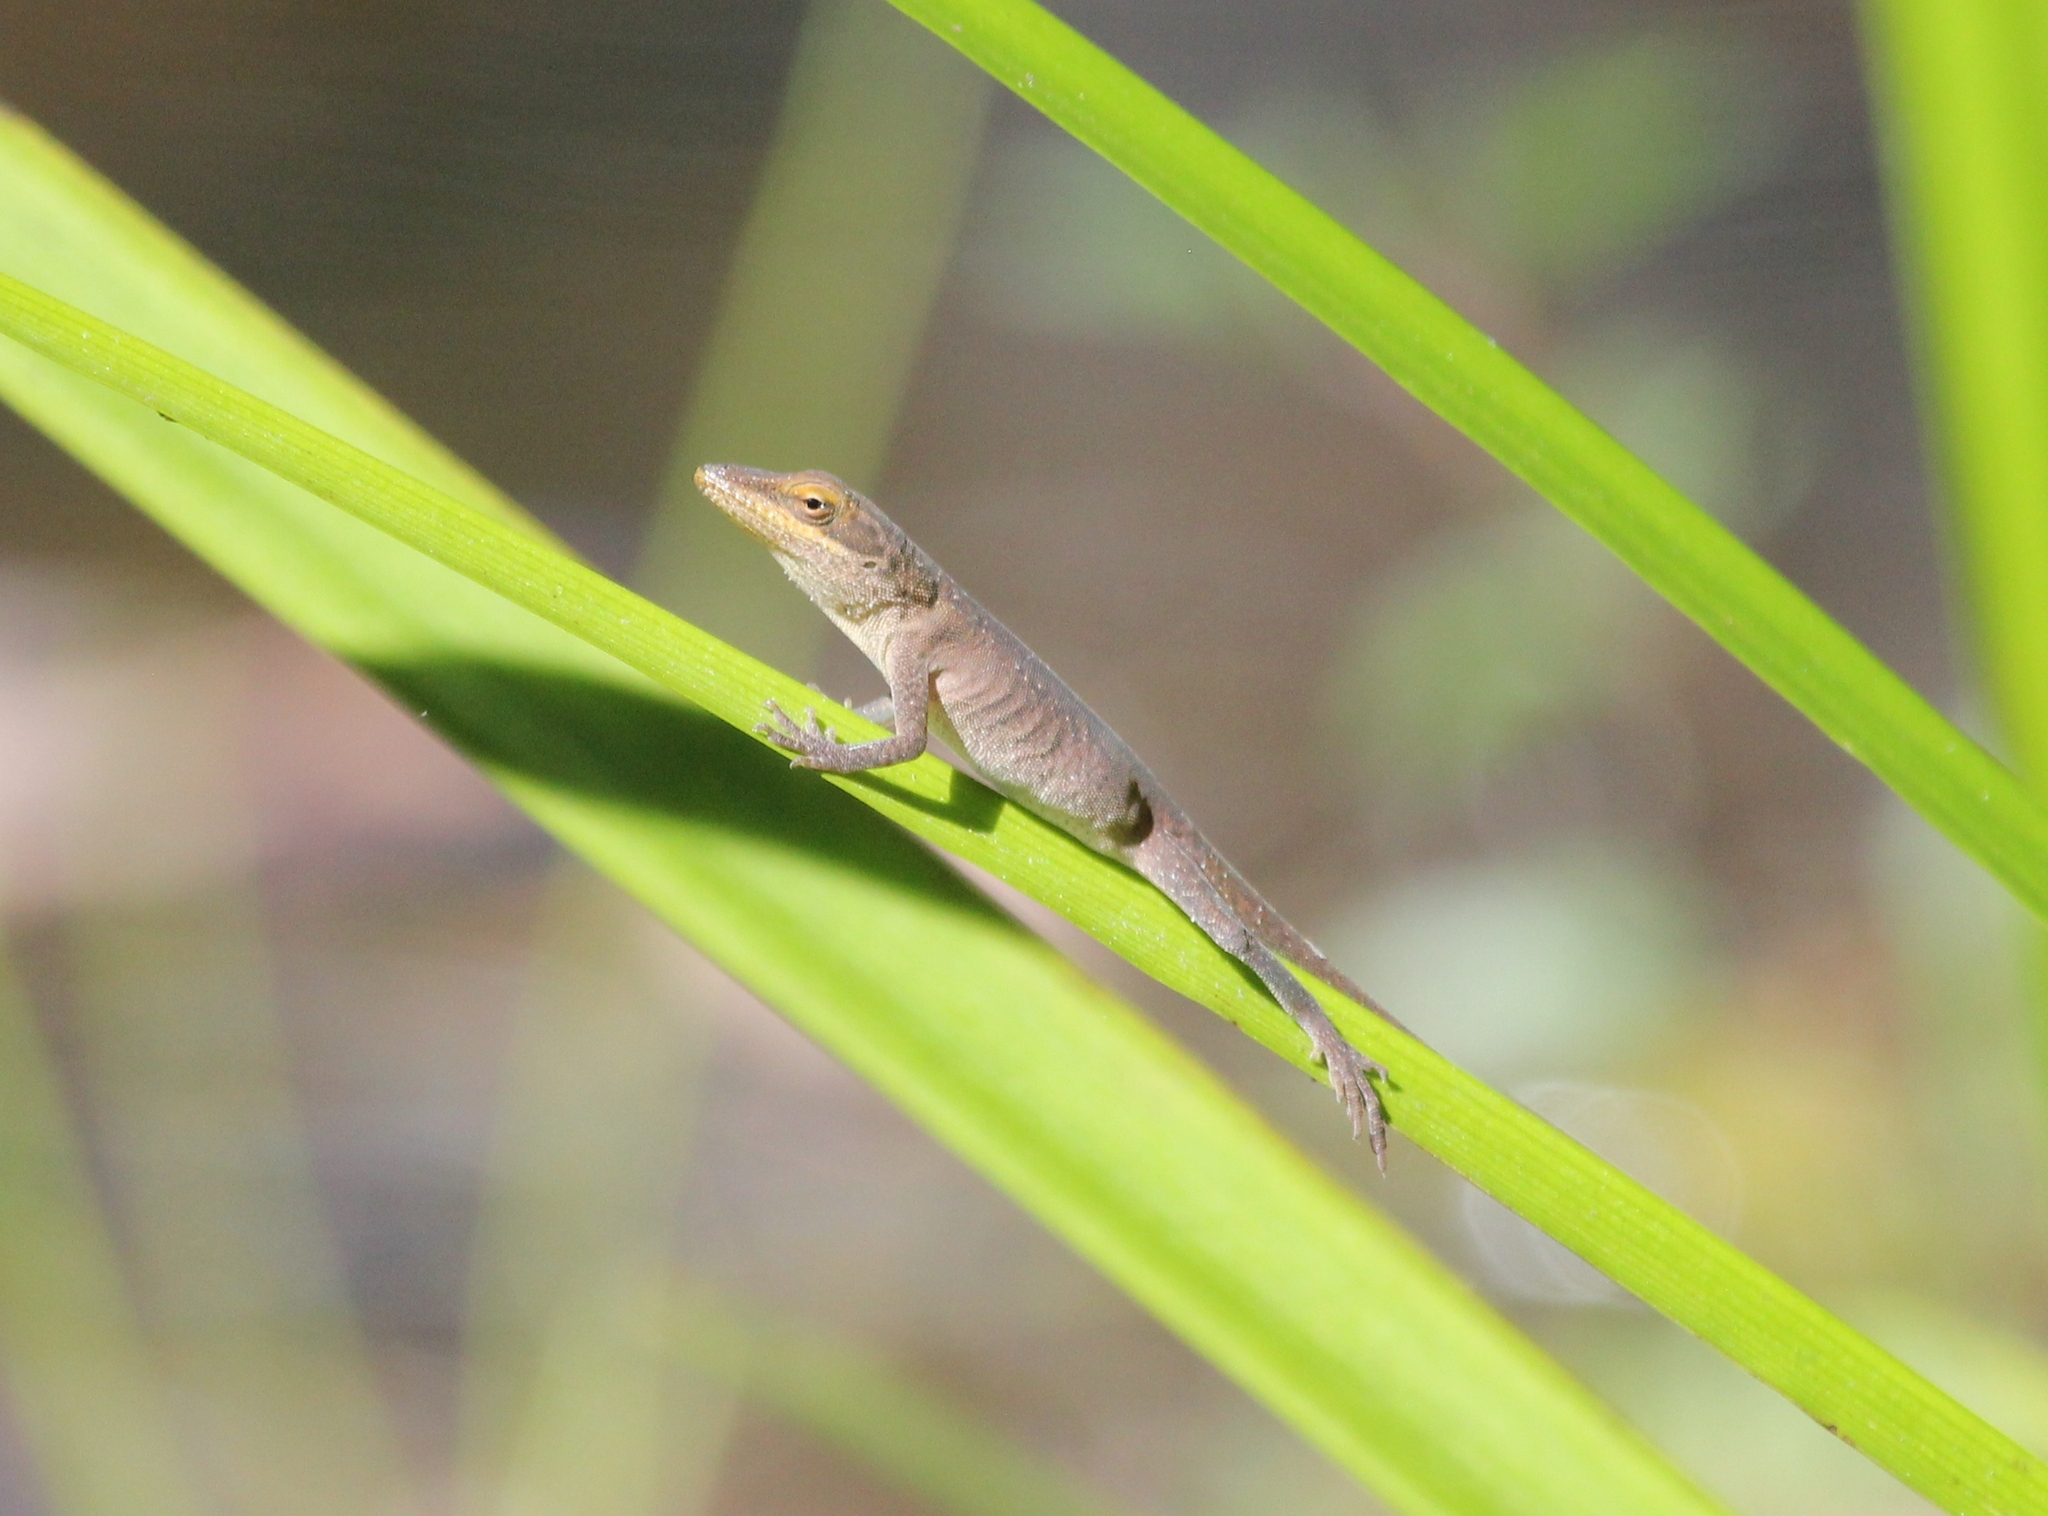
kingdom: Animalia
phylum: Chordata
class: Squamata
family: Dactyloidae
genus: Anolis
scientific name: Anolis carolinensis
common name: Green anole
